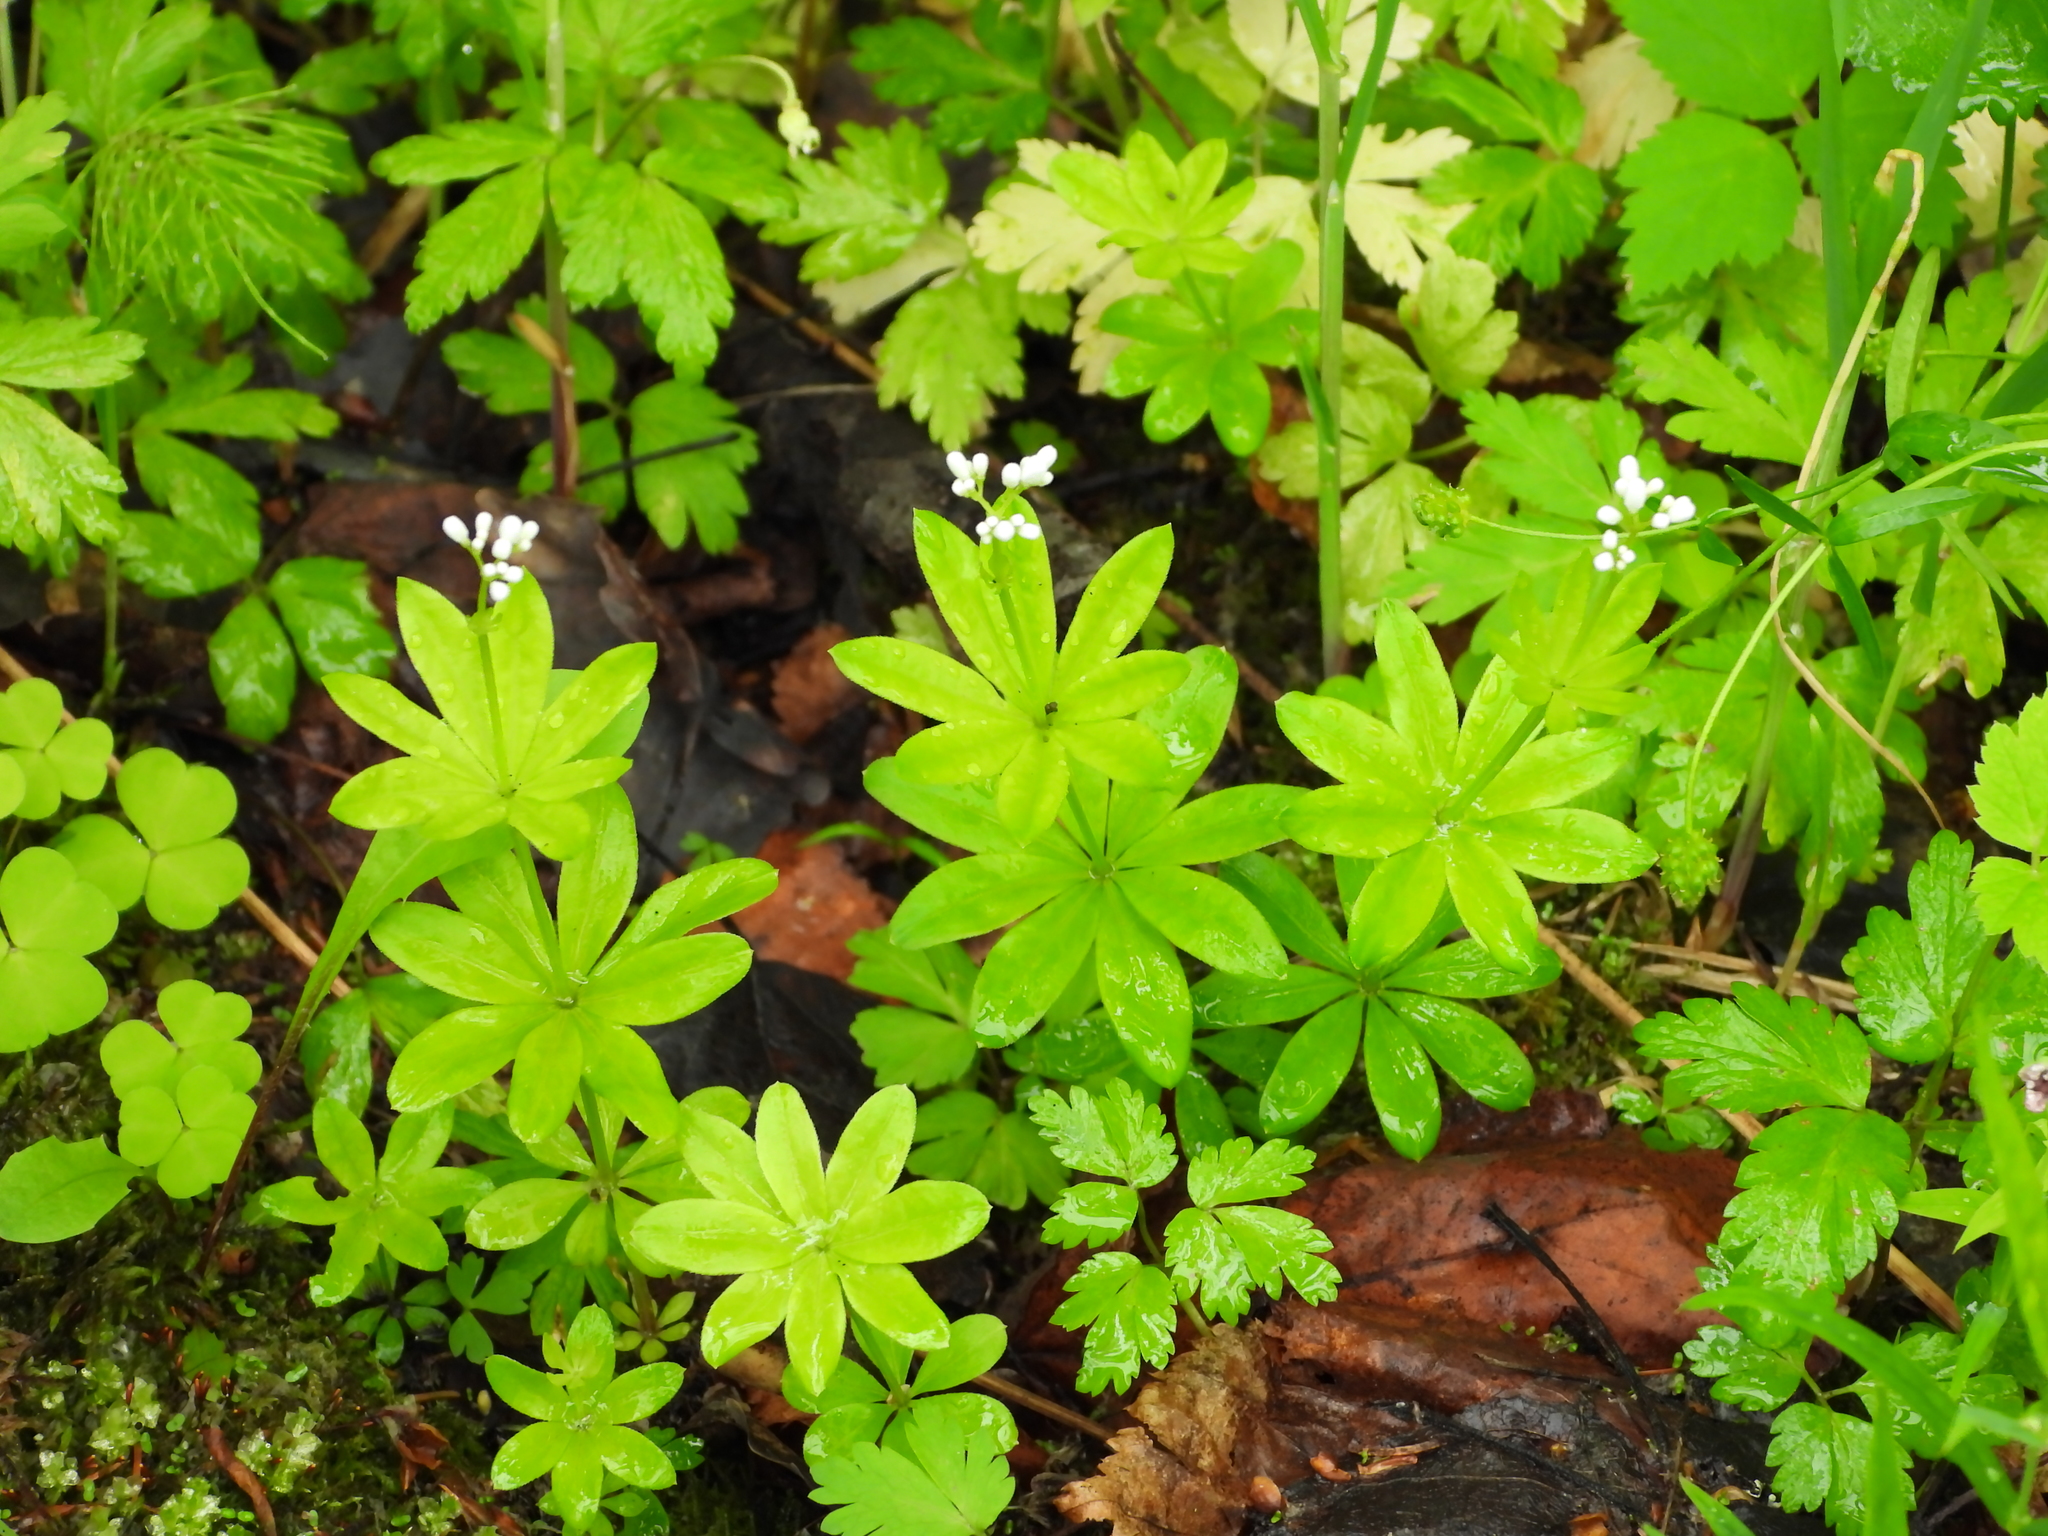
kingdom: Plantae
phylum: Tracheophyta
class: Magnoliopsida
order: Gentianales
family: Rubiaceae
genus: Galium
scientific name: Galium odoratum
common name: Sweet woodruff
